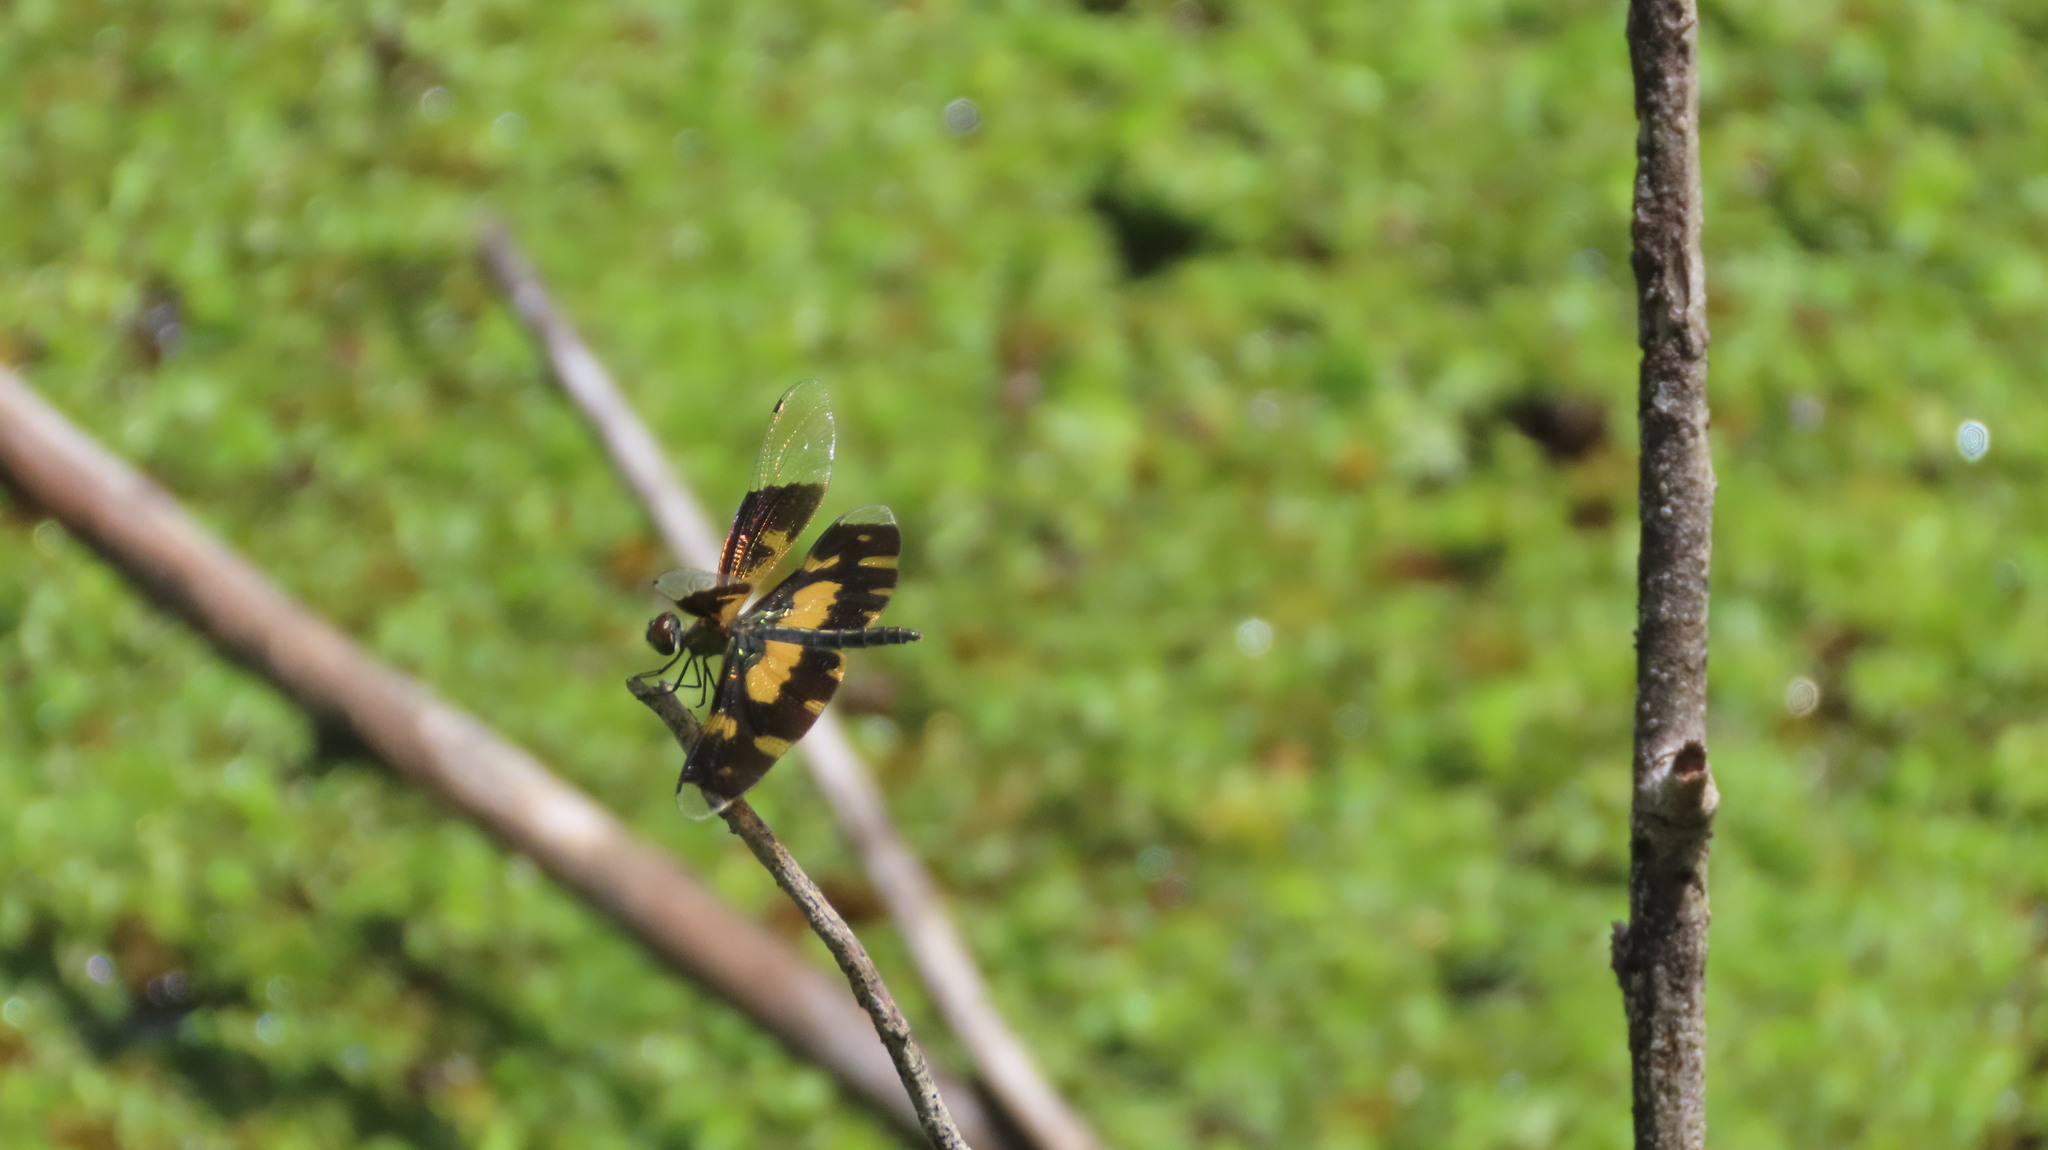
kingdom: Animalia
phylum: Arthropoda
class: Insecta
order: Odonata
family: Libellulidae
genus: Rhyothemis
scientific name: Rhyothemis variegata
